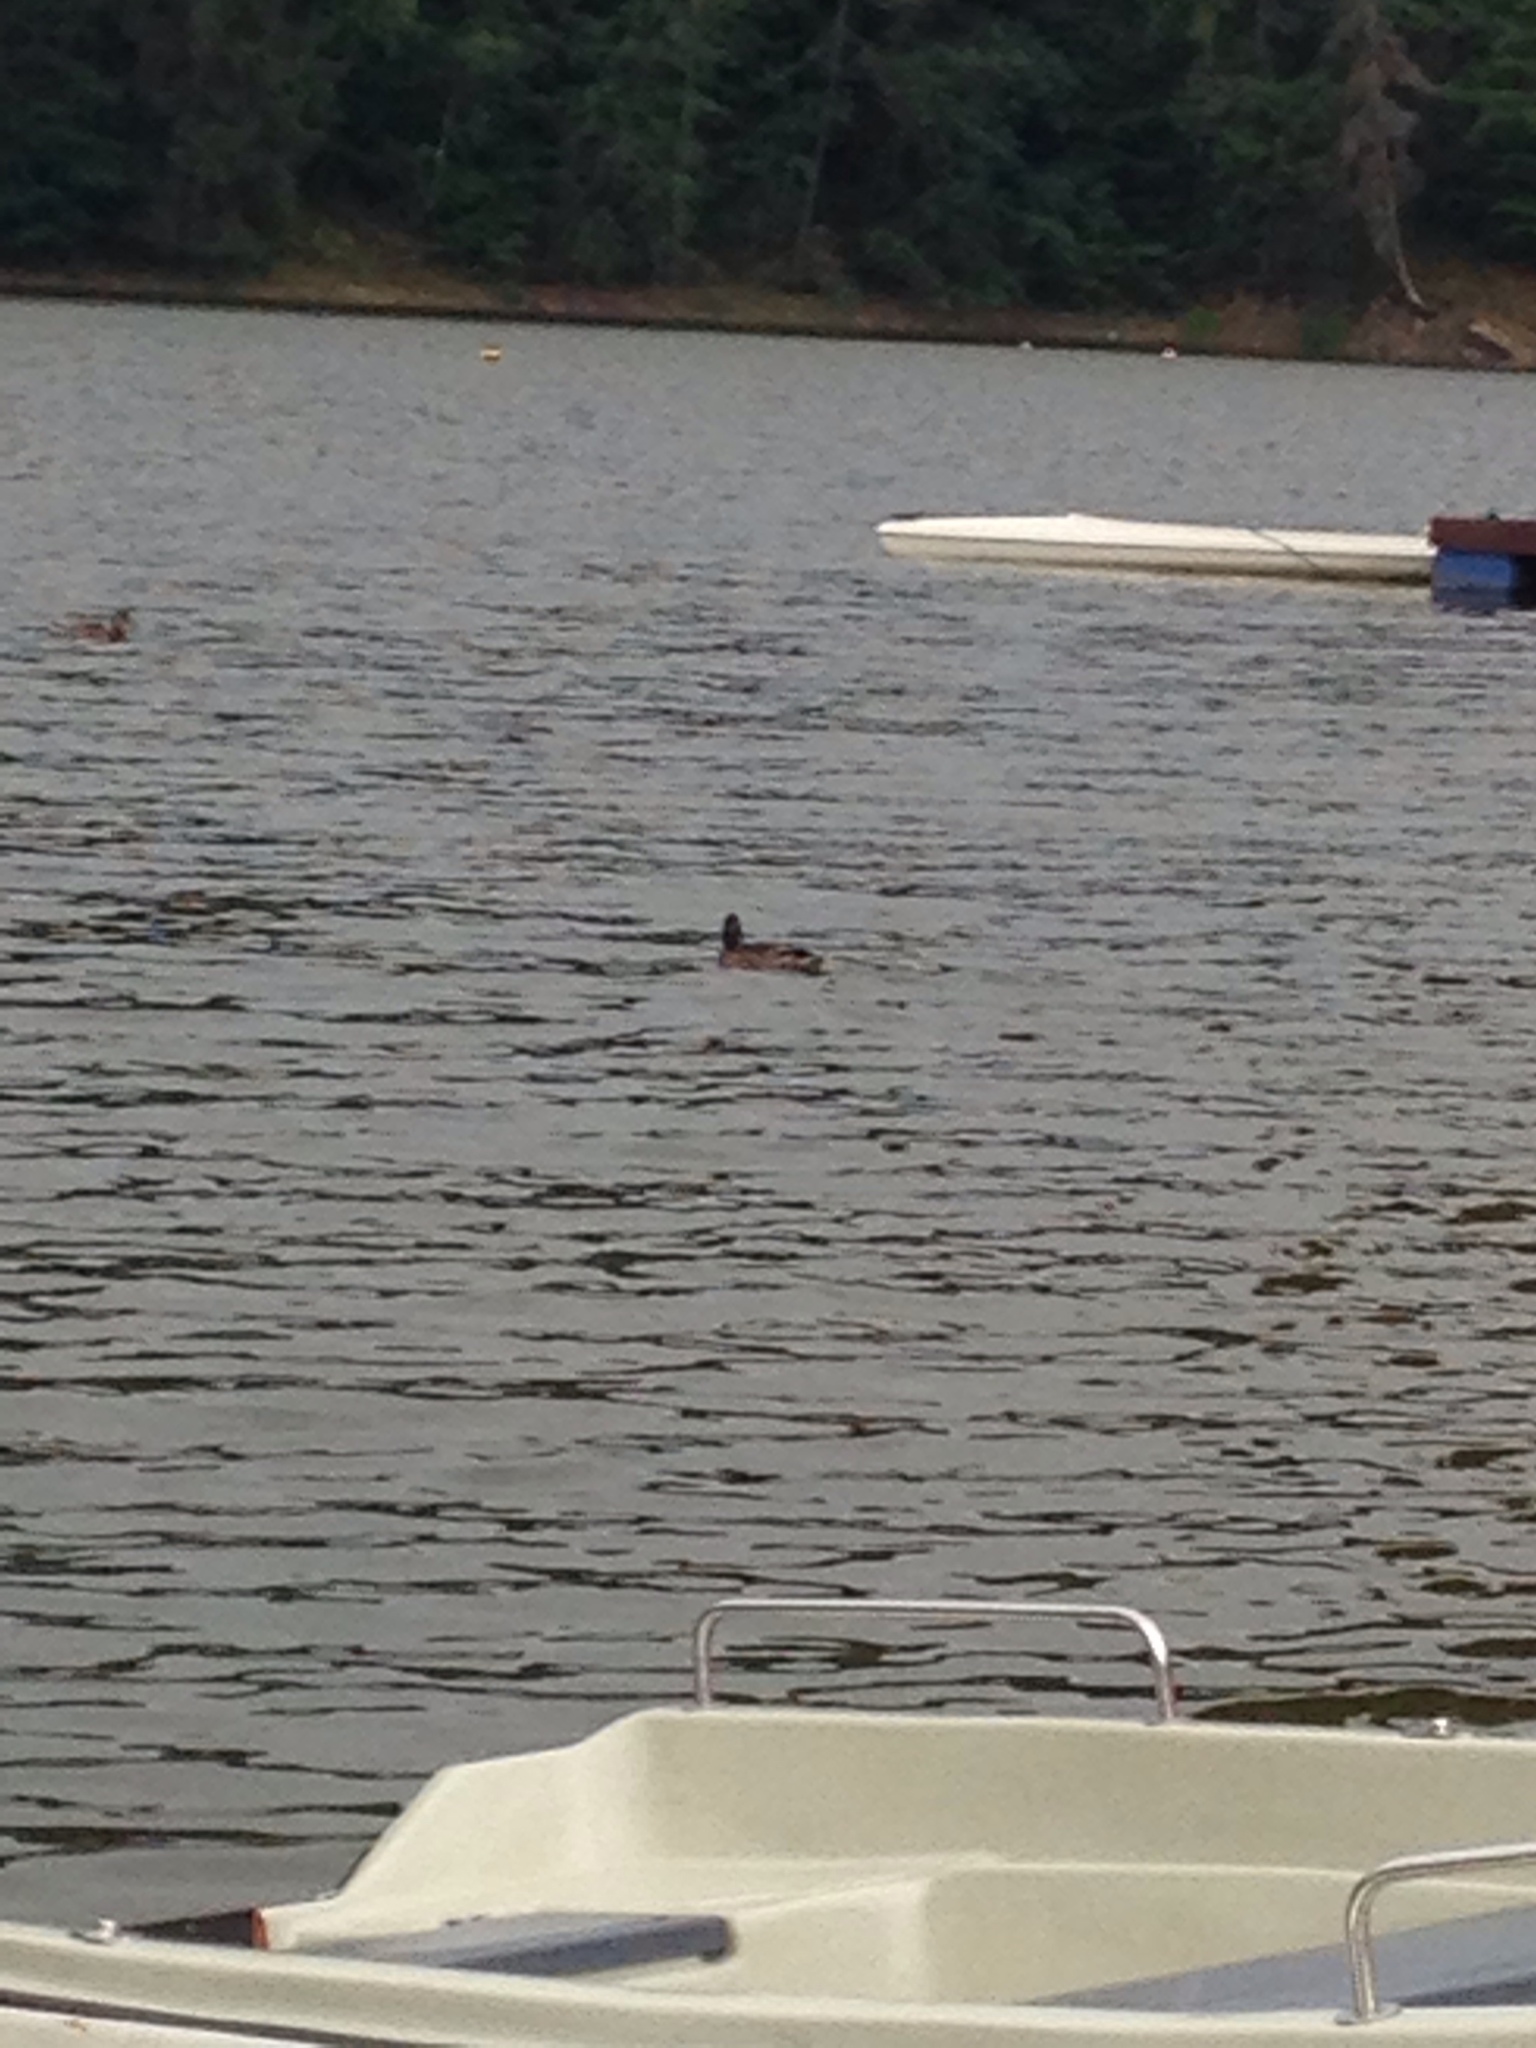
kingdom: Animalia
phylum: Chordata
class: Aves
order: Anseriformes
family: Anatidae
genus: Anas
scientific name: Anas platyrhynchos
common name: Mallard
